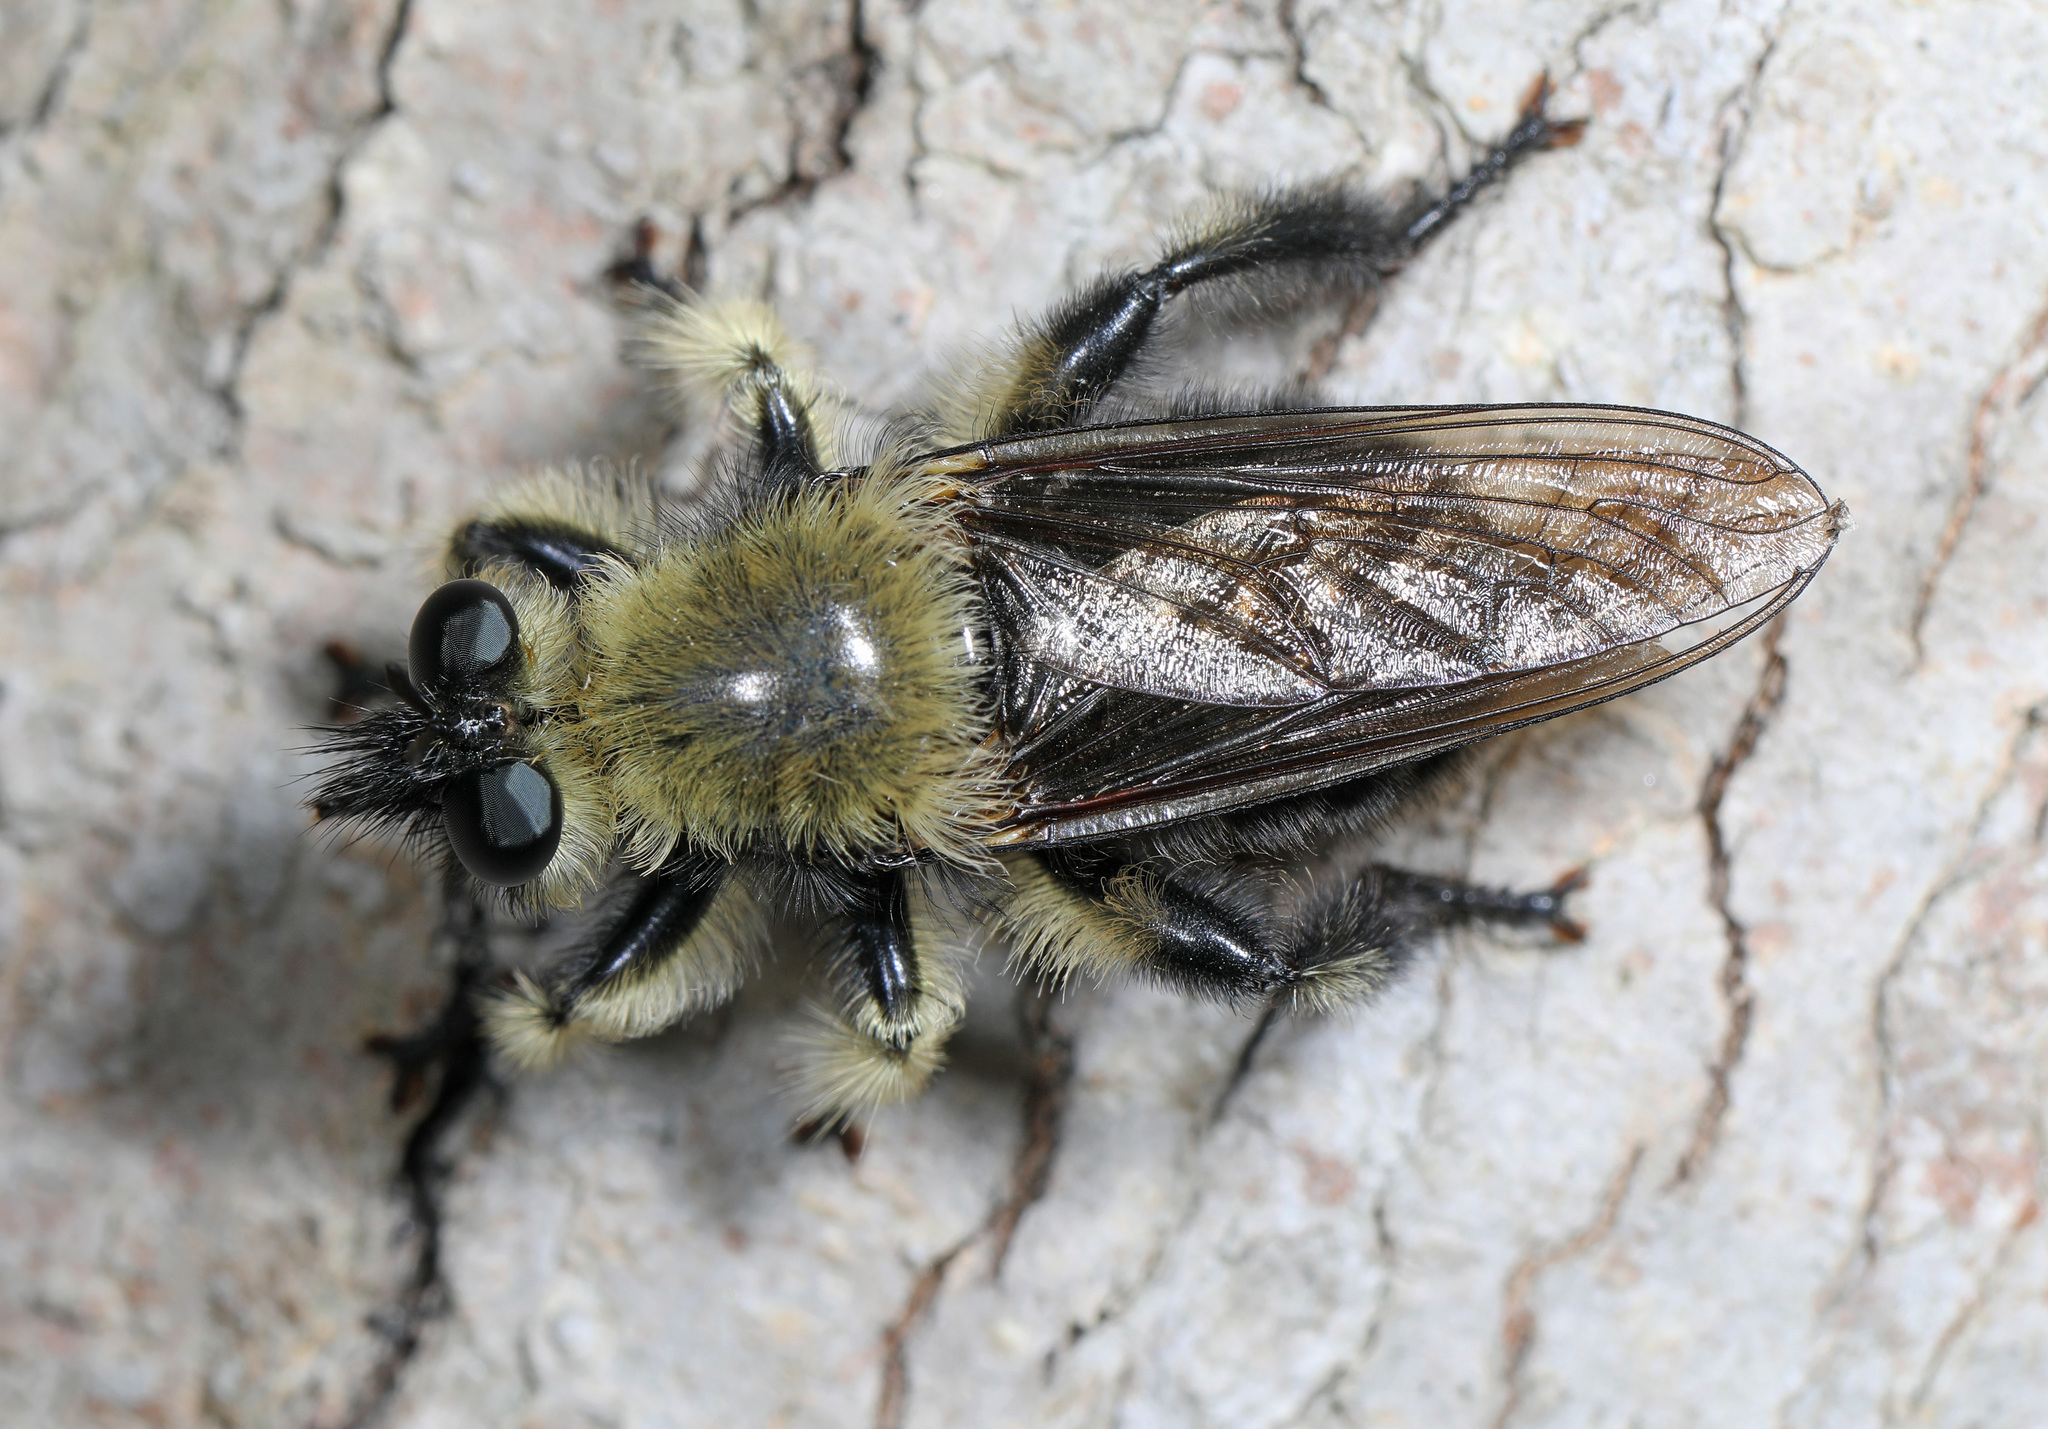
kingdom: Animalia
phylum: Arthropoda
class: Insecta
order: Diptera
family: Asilidae
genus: Laphria
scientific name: Laphria affinis
